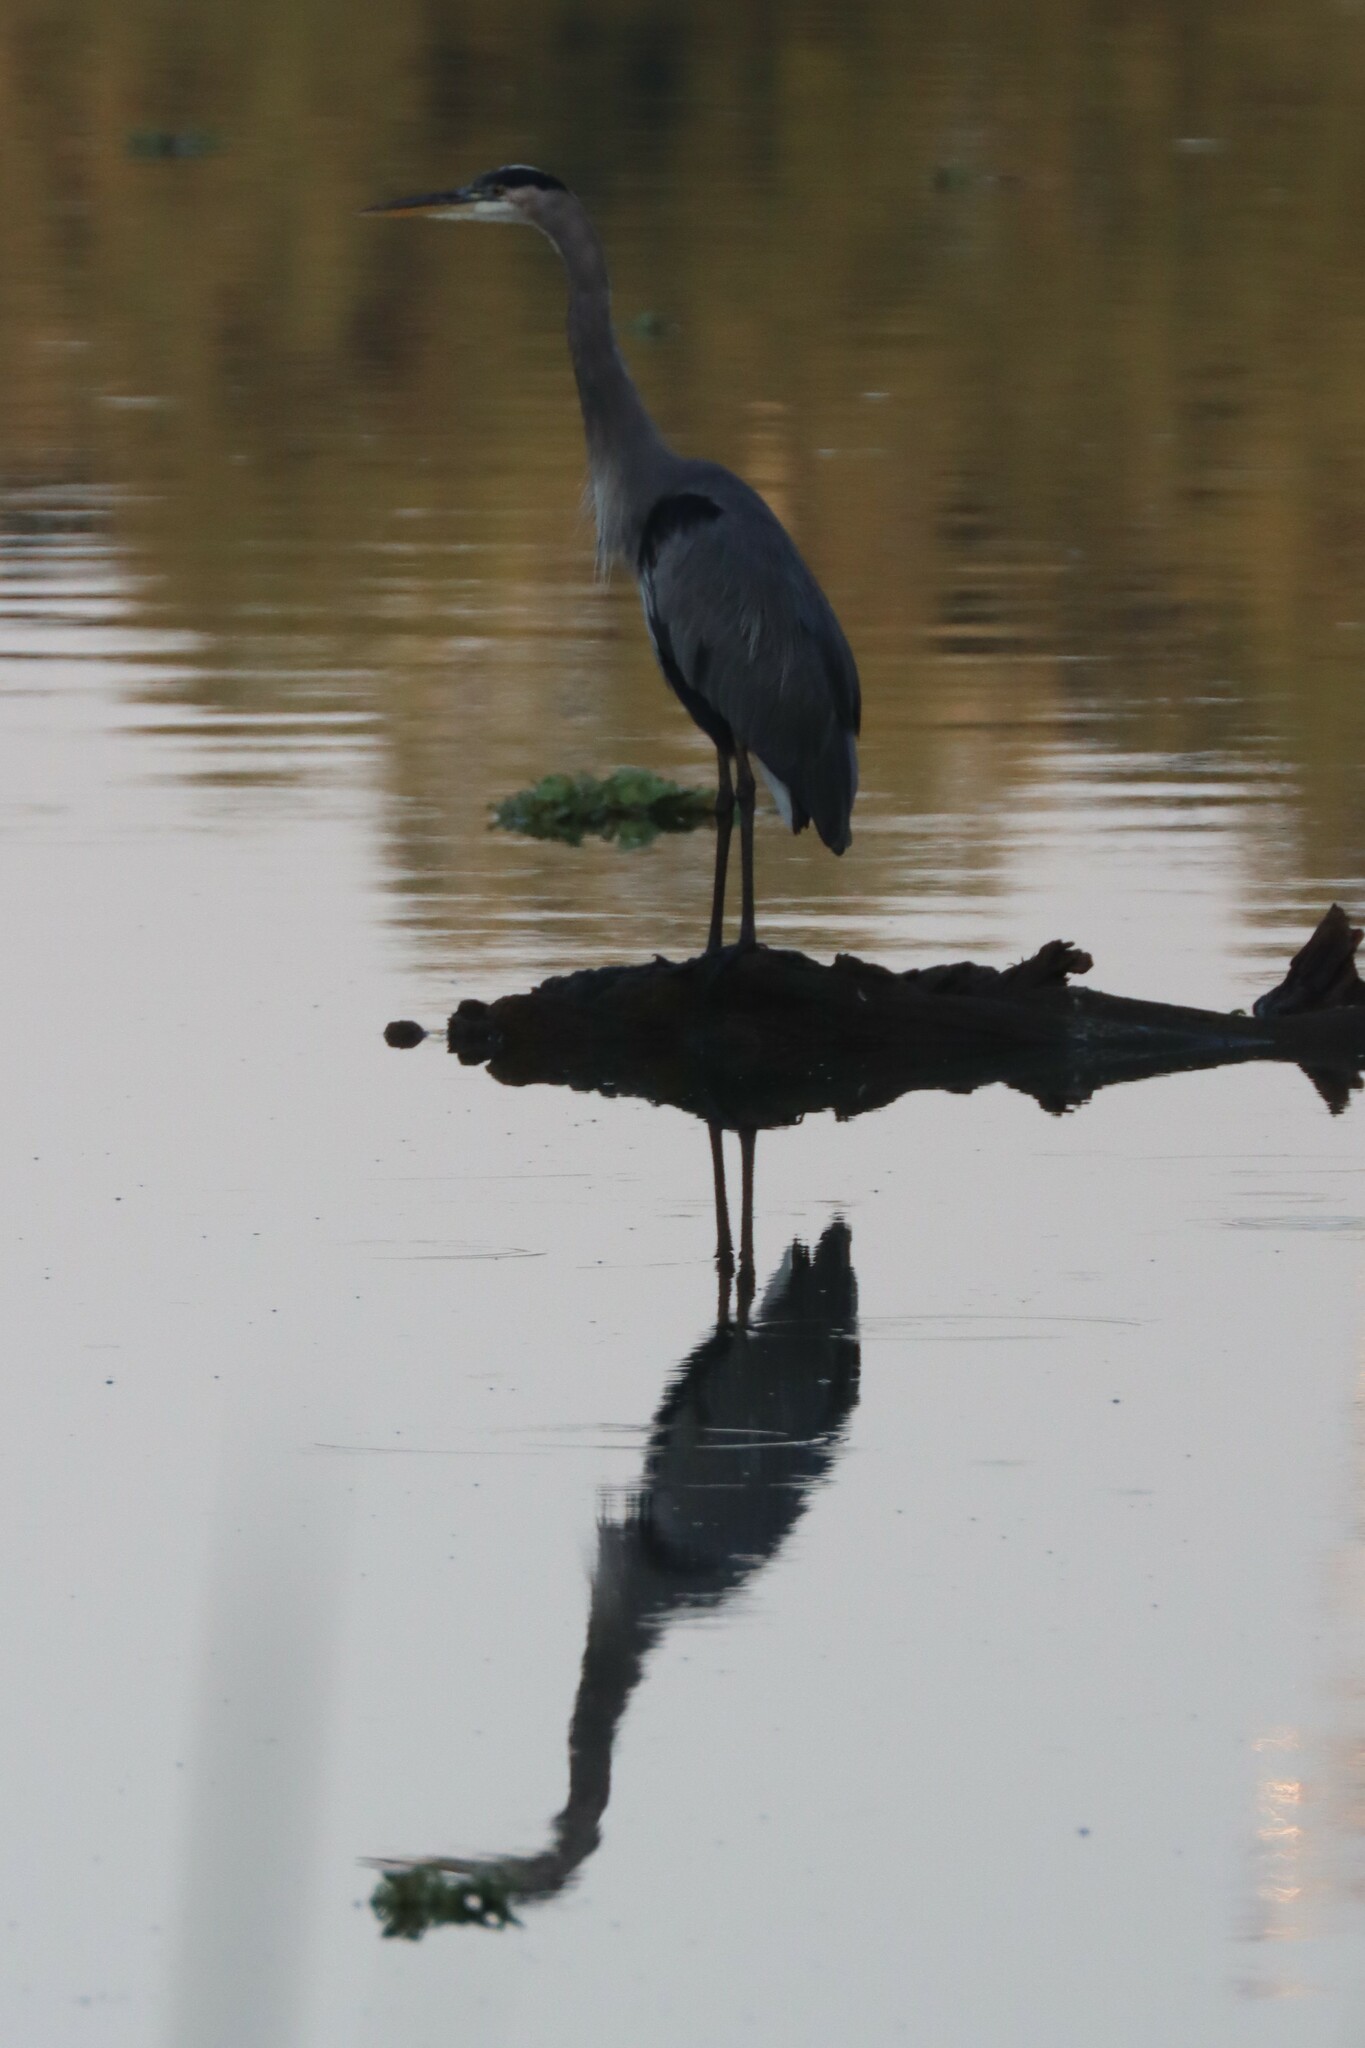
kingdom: Animalia
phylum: Chordata
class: Aves
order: Pelecaniformes
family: Ardeidae
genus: Ardea
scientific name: Ardea herodias
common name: Great blue heron
